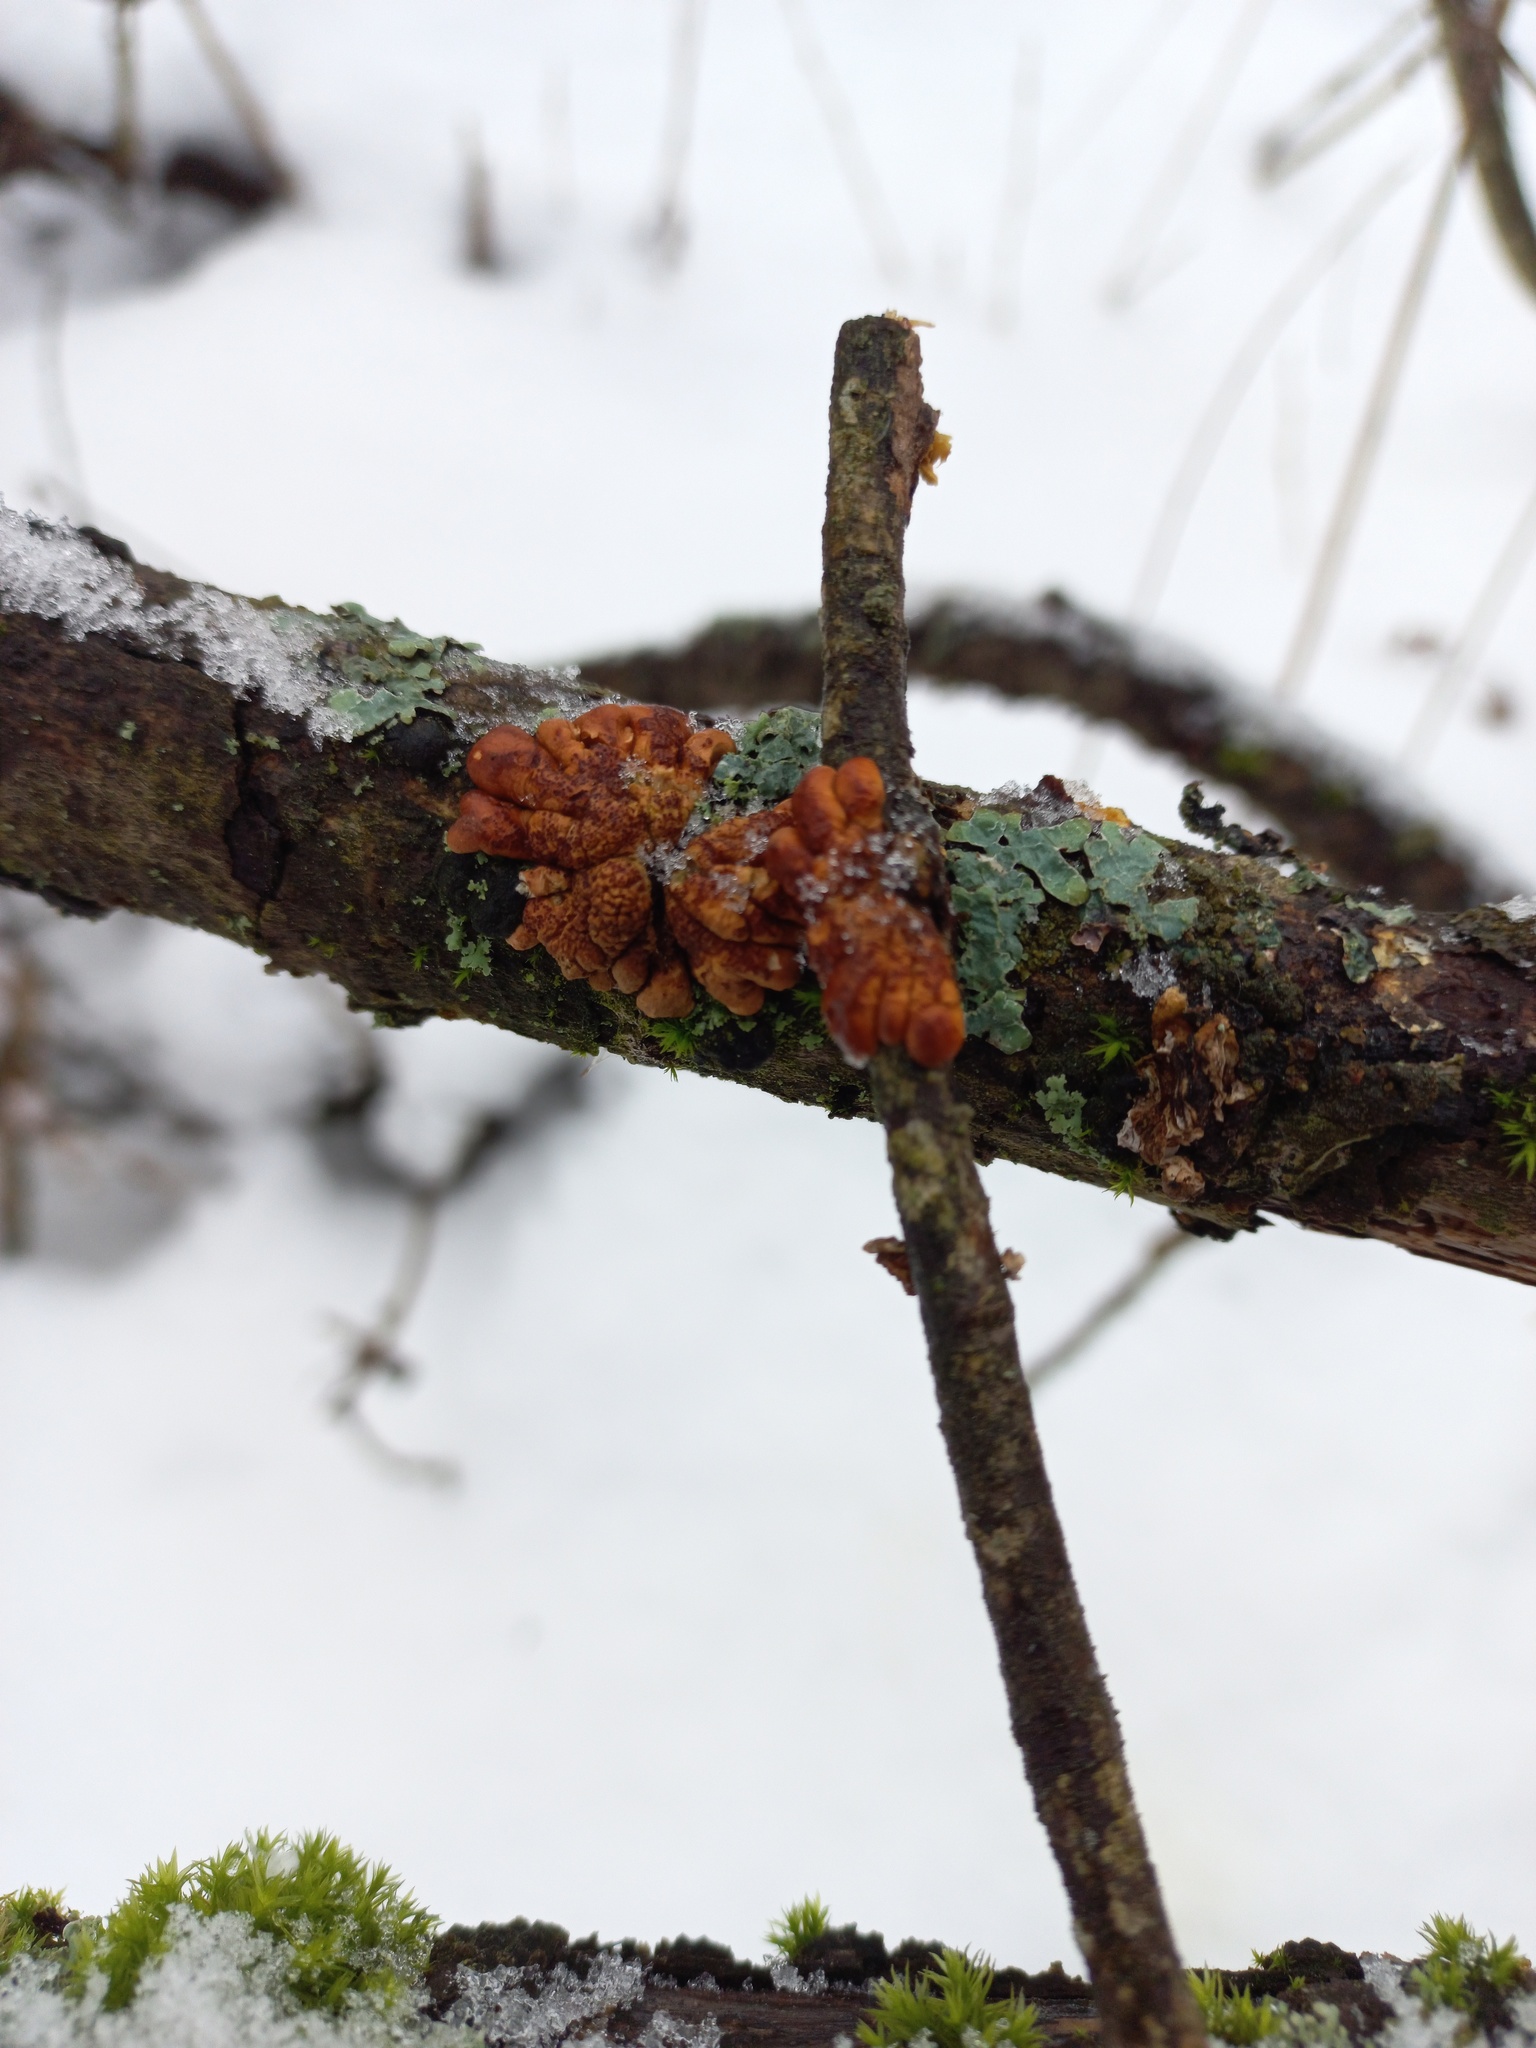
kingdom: Fungi
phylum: Ascomycota
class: Sordariomycetes
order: Hypocreales
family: Hypocreaceae
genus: Hypocreopsis
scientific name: Hypocreopsis lichenoides
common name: Willow gloves
